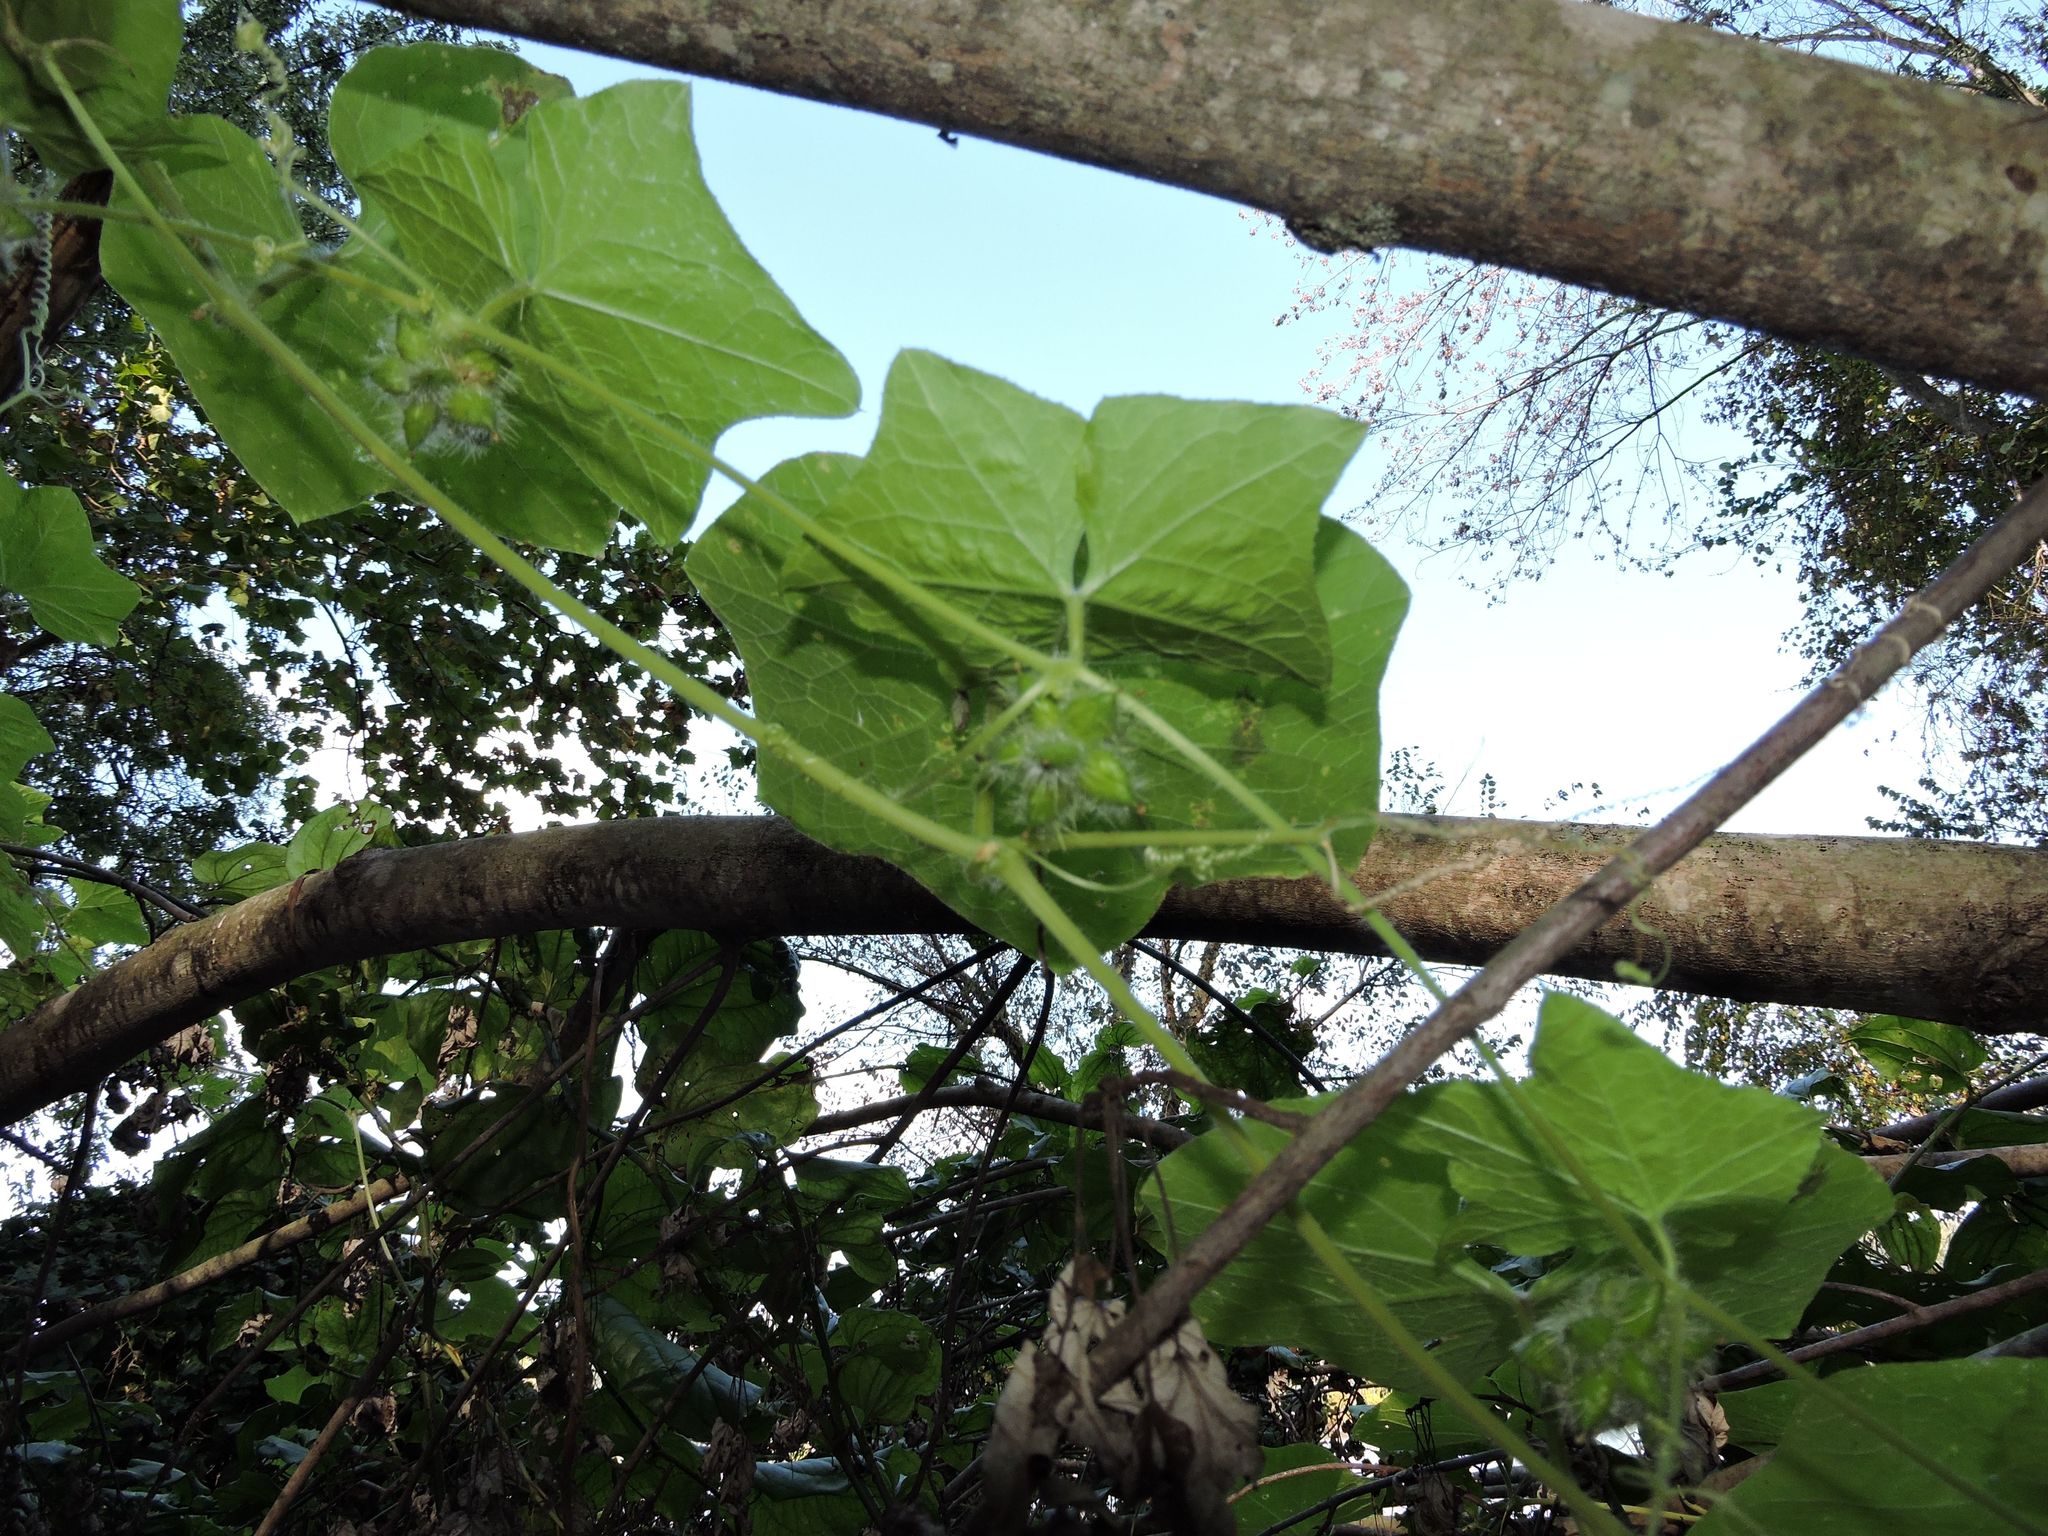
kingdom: Plantae
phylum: Tracheophyta
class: Magnoliopsida
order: Cucurbitales
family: Cucurbitaceae
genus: Sicyos
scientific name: Sicyos angulatus
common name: Angled burr cucumber
